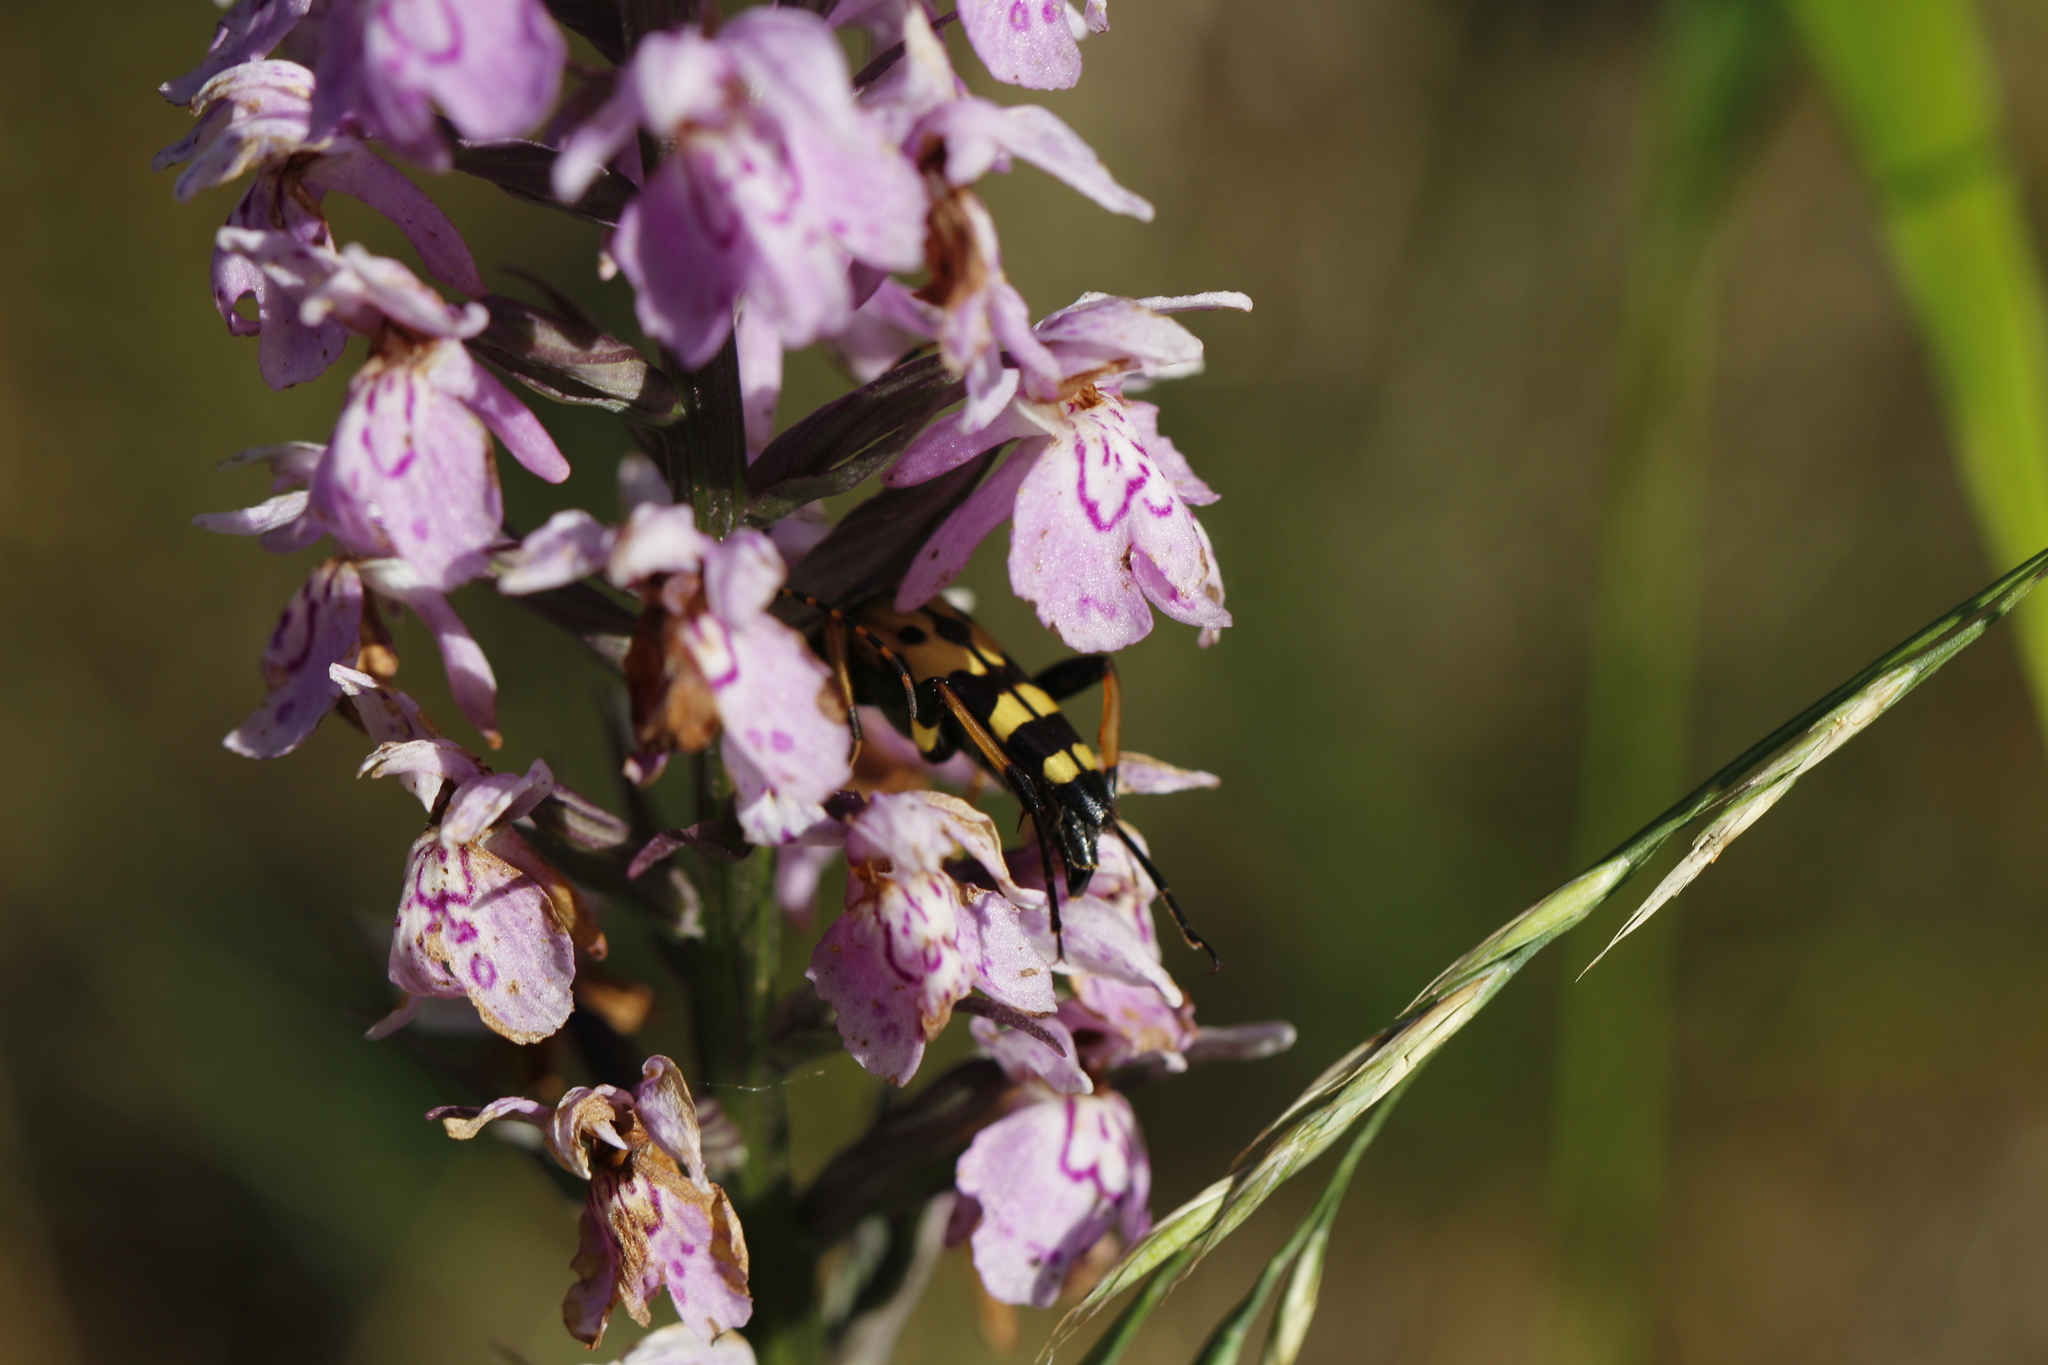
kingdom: Animalia
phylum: Arthropoda
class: Insecta
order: Coleoptera
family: Cerambycidae
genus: Rutpela
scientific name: Rutpela maculata
